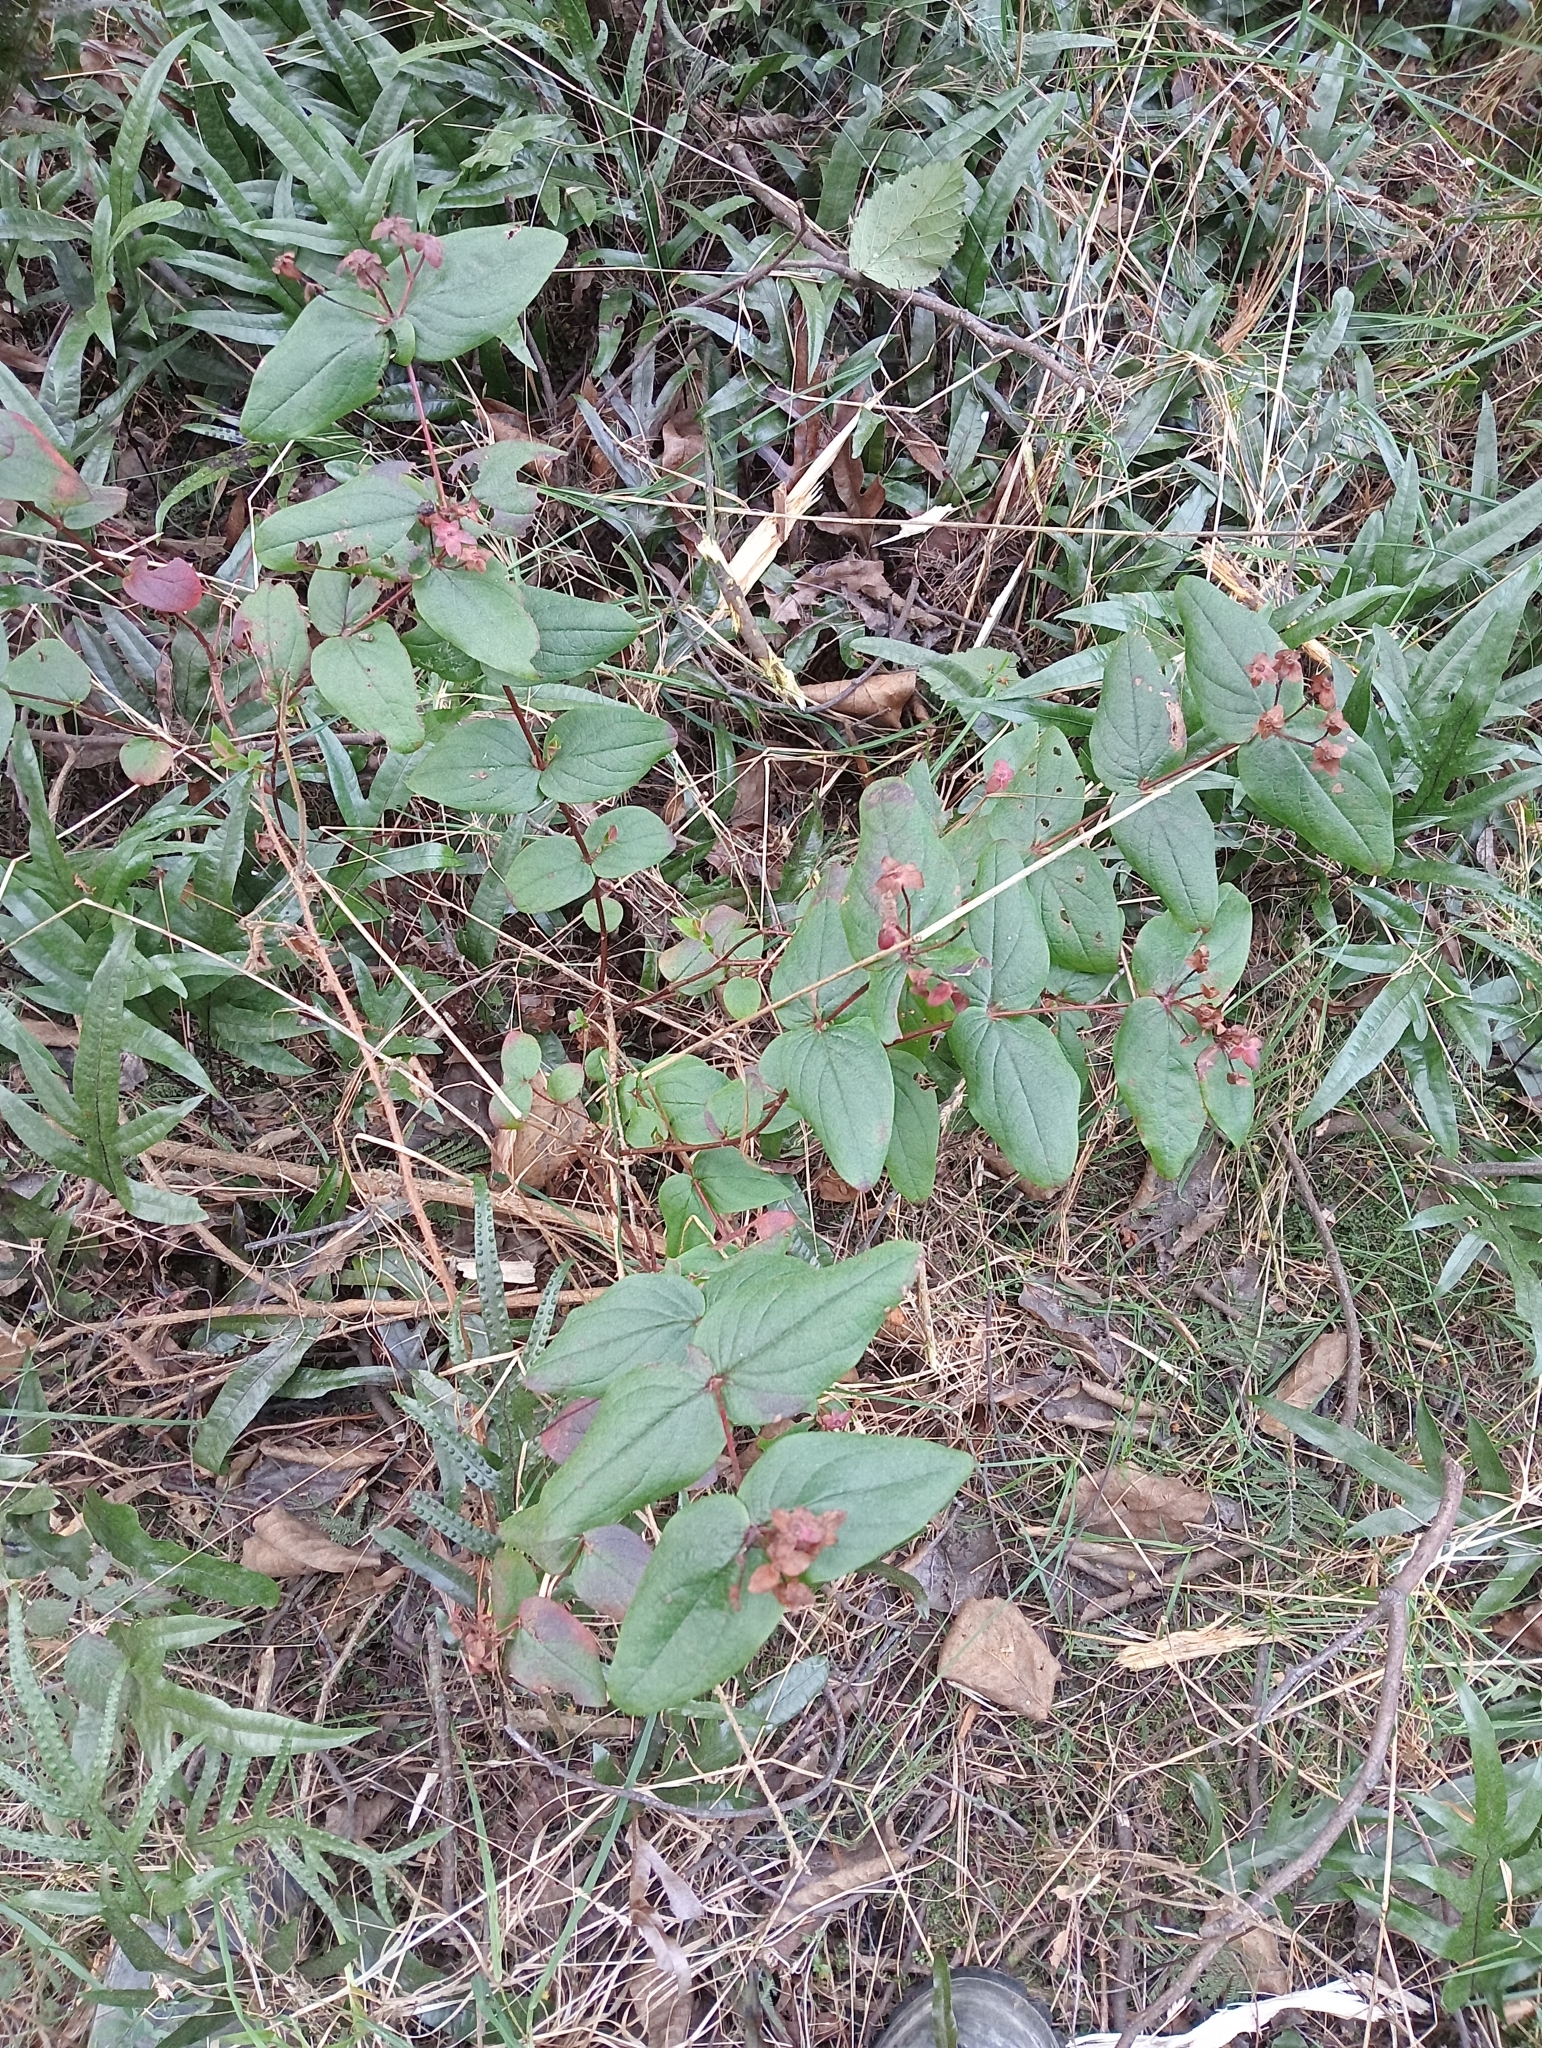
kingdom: Plantae
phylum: Tracheophyta
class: Magnoliopsida
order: Malpighiales
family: Hypericaceae
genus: Hypericum
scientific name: Hypericum androsaemum
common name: Sweet-amber
